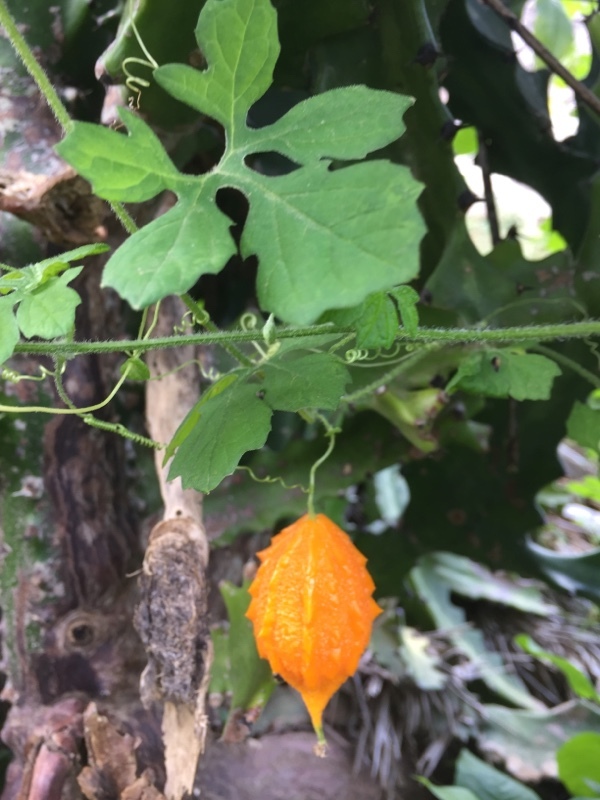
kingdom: Plantae
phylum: Tracheophyta
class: Magnoliopsida
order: Cucurbitales
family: Cucurbitaceae
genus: Momordica
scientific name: Momordica charantia
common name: Balsampear
